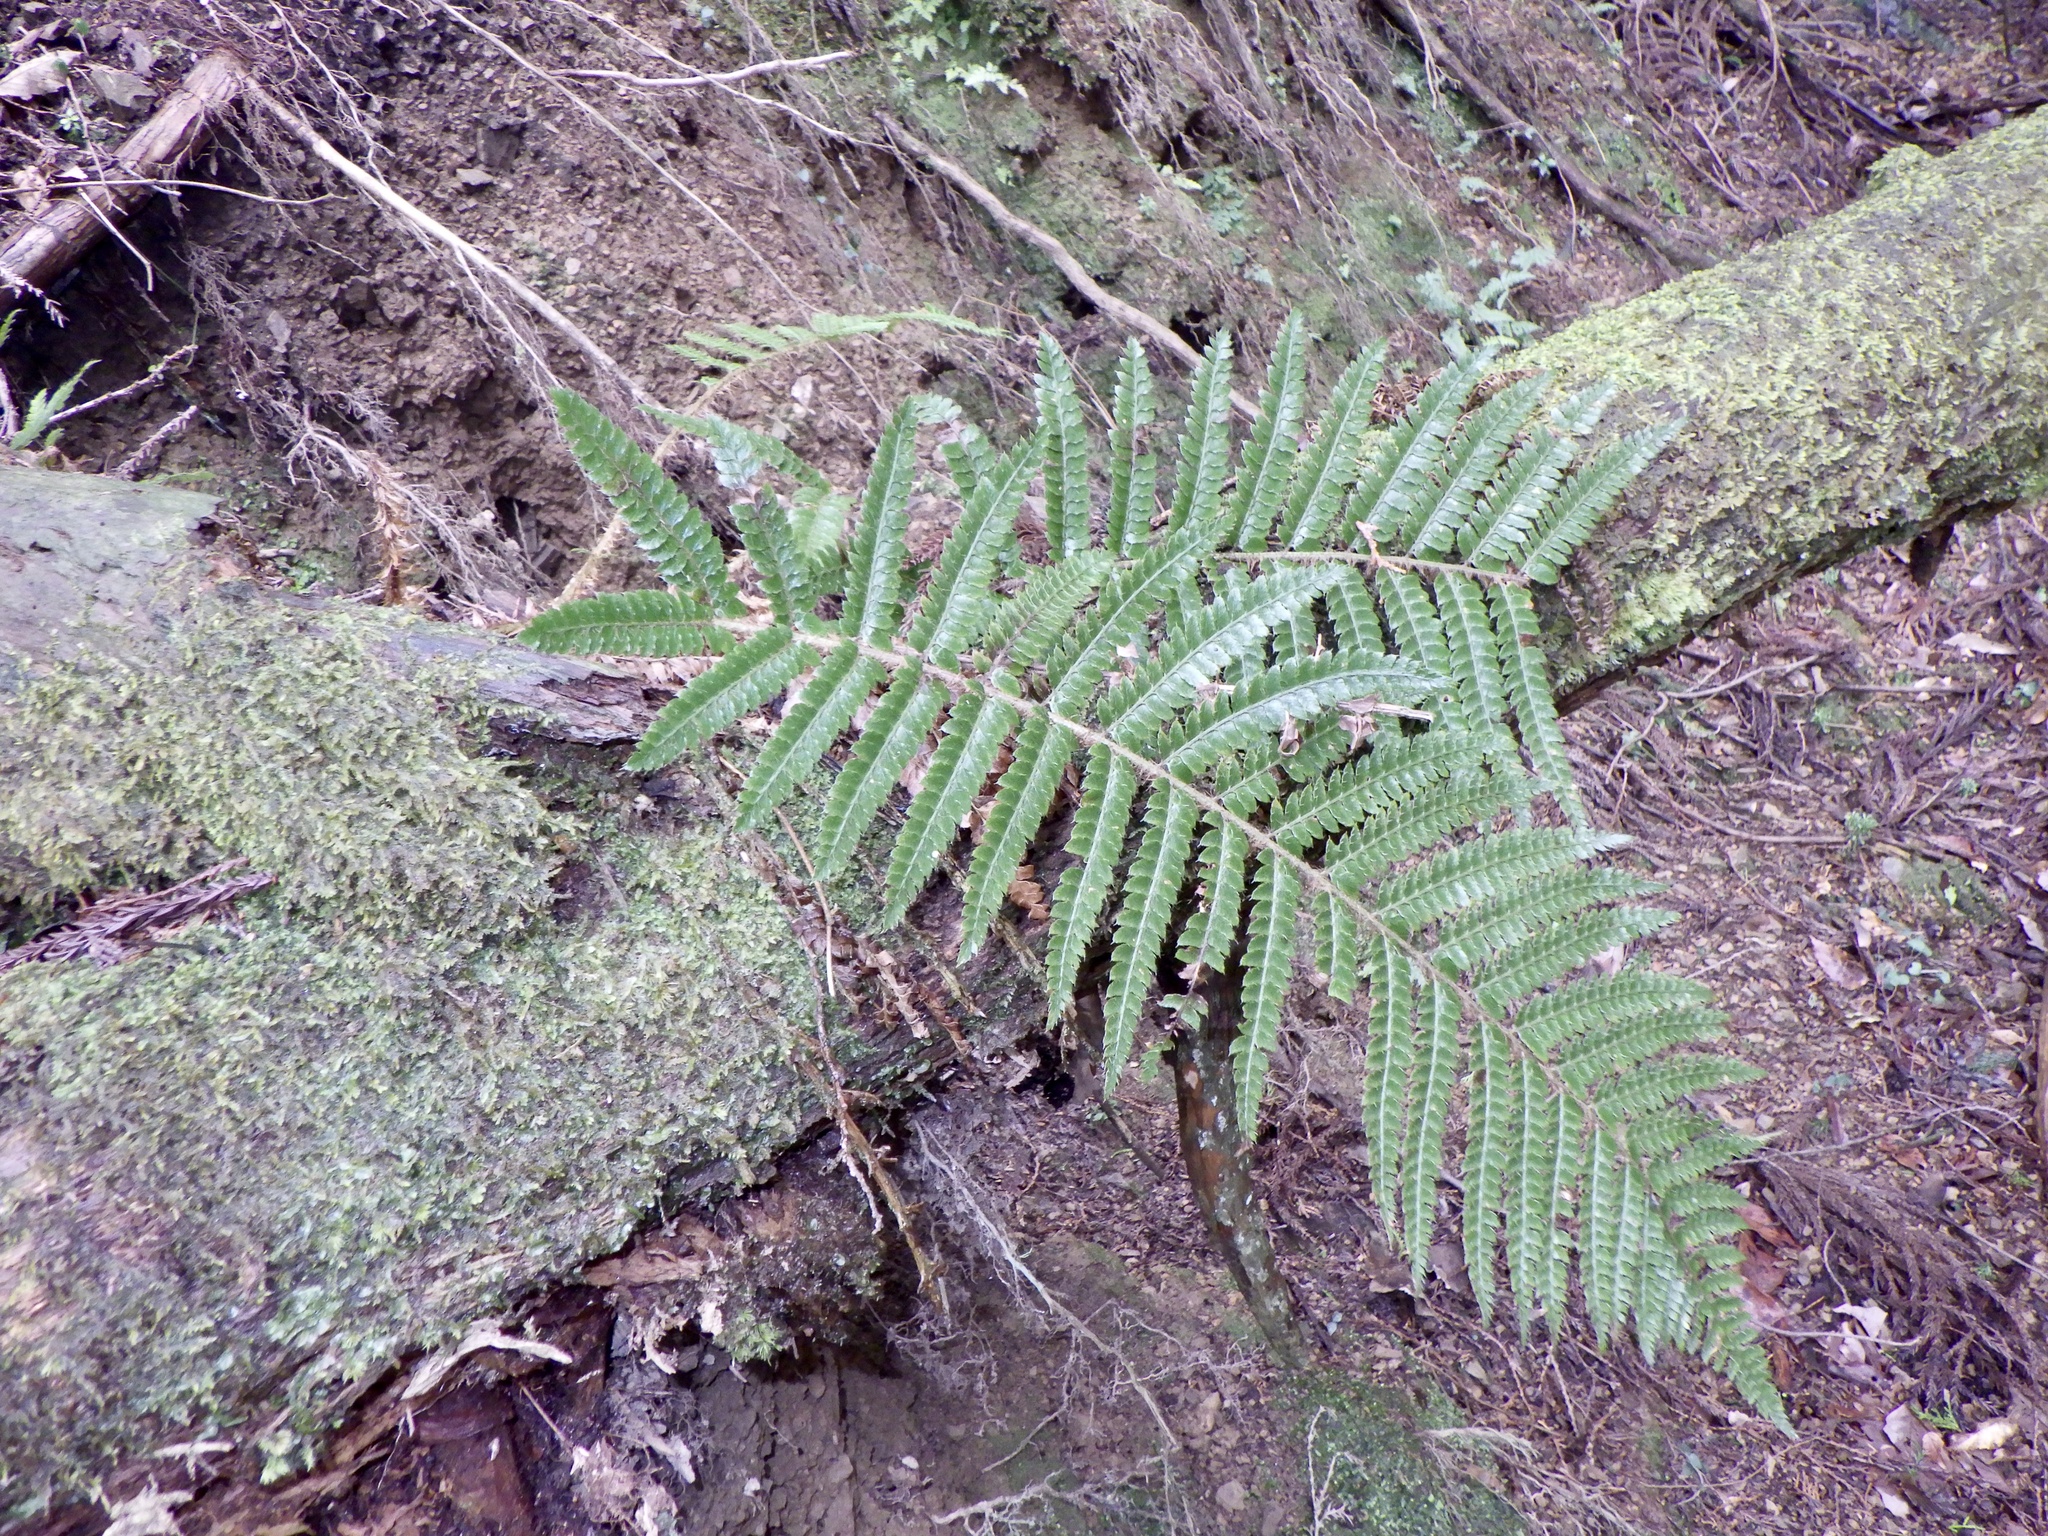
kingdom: Plantae
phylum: Tracheophyta
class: Polypodiopsida
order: Polypodiales
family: Dryopteridaceae
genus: Polystichum
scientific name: Polystichum luctuosum
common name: Korean rockfern
